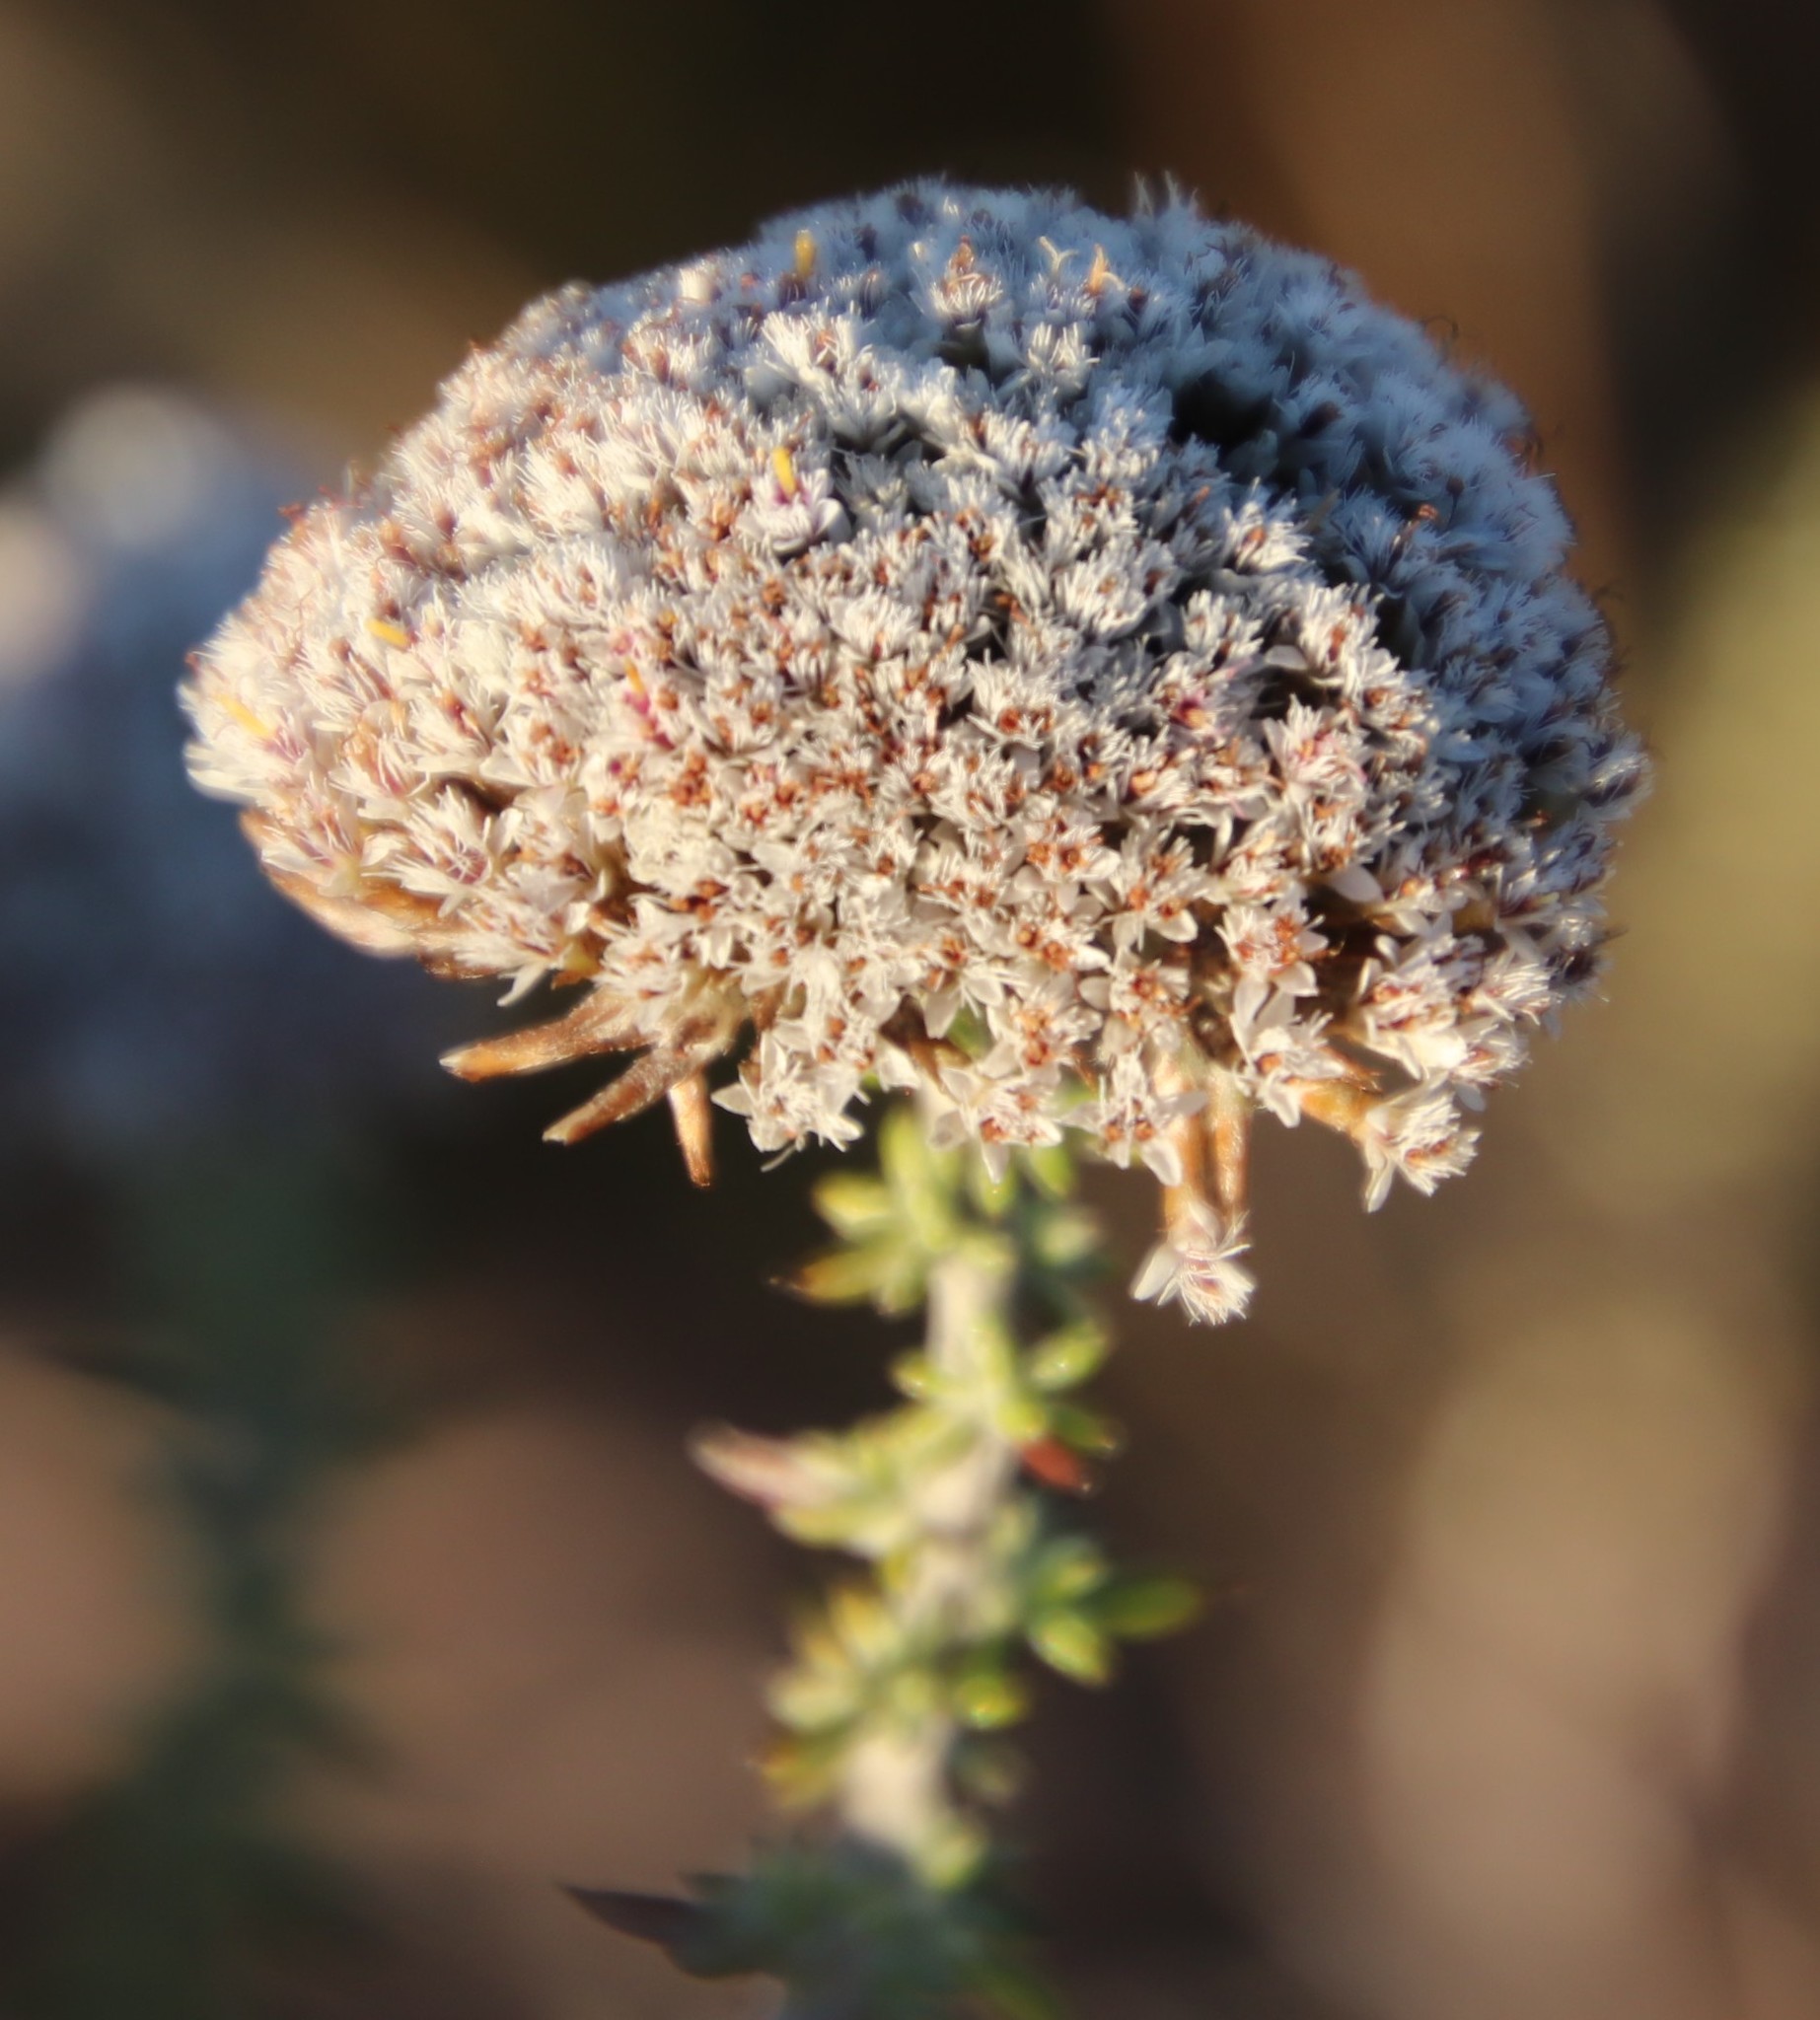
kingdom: Plantae
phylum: Tracheophyta
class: Magnoliopsida
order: Asterales
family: Asteraceae
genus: Metalasia
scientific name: Metalasia brevifolia
